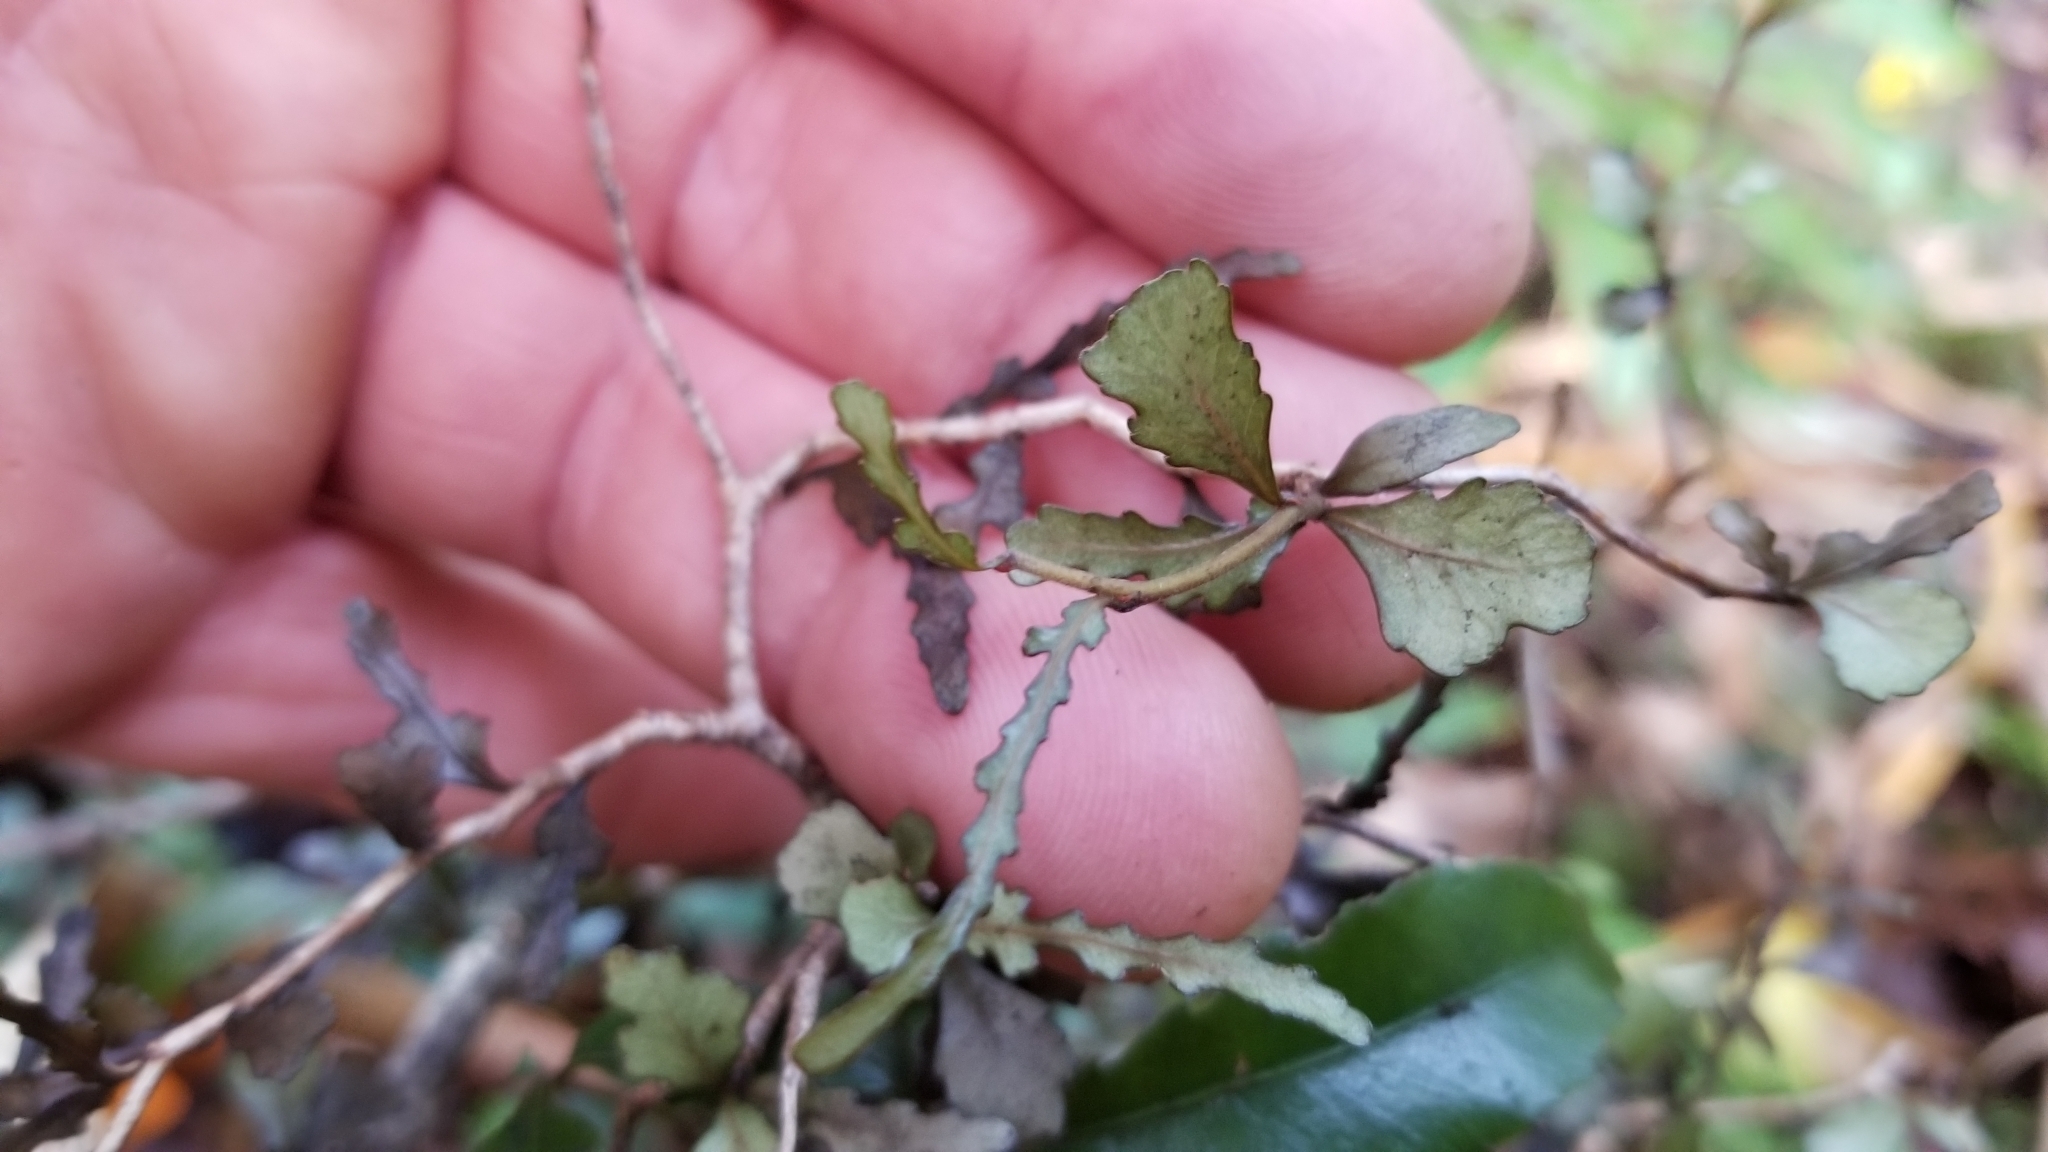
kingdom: Plantae
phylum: Tracheophyta
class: Magnoliopsida
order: Oxalidales
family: Elaeocarpaceae
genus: Elaeocarpus
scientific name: Elaeocarpus hookerianus
